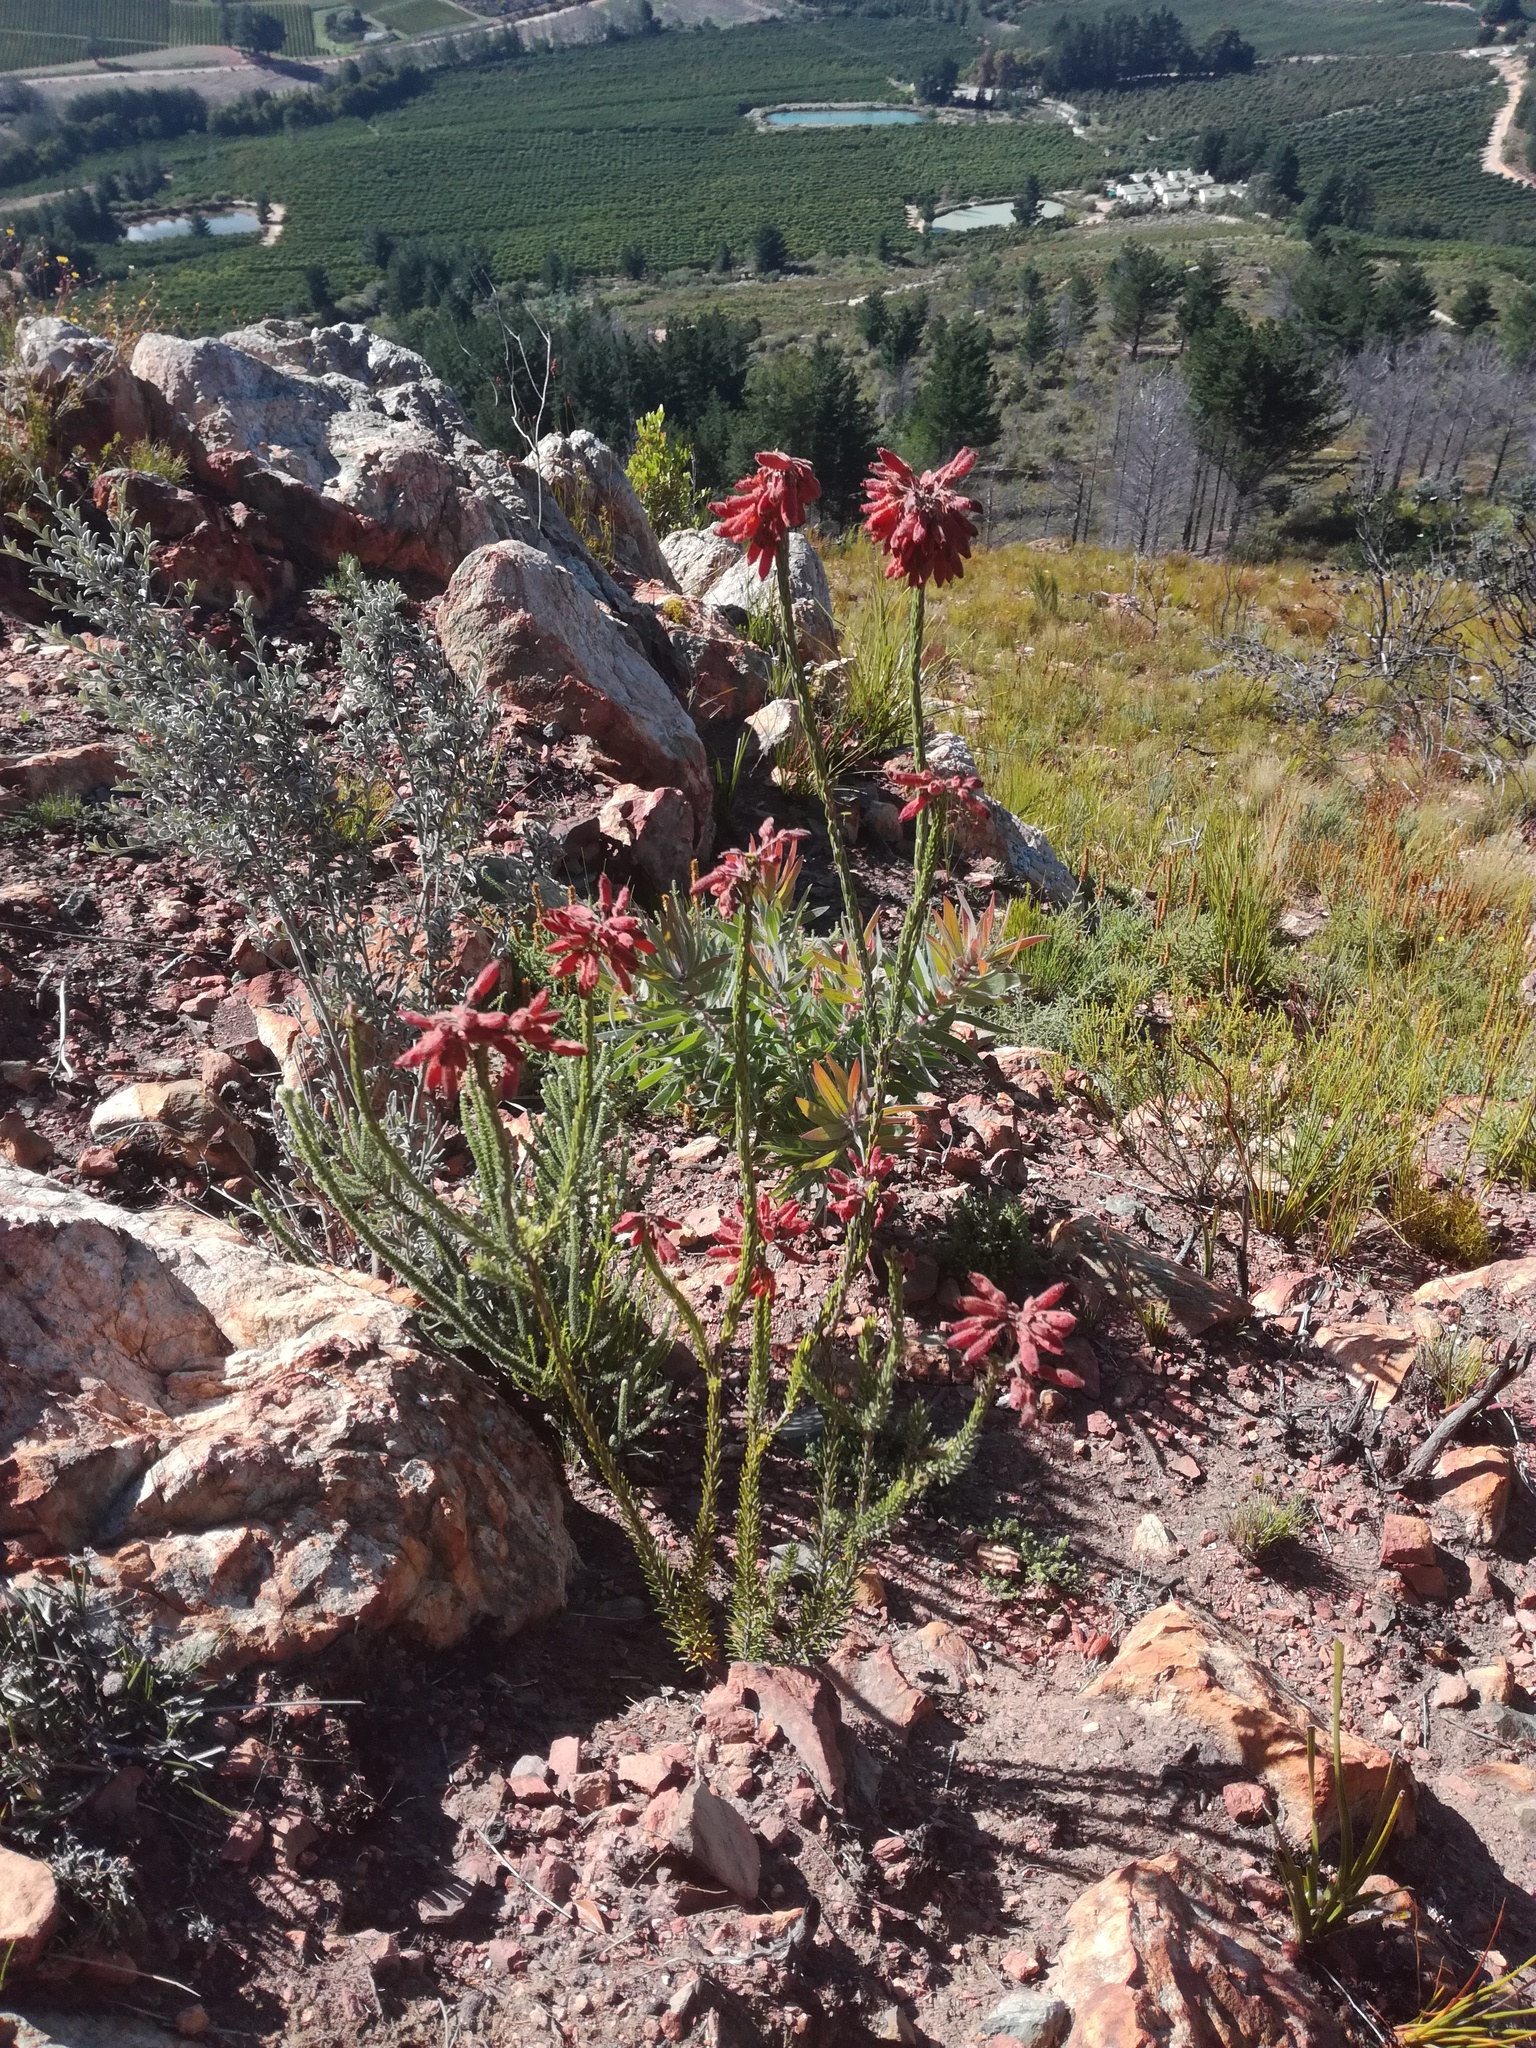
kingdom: Plantae
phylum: Tracheophyta
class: Magnoliopsida
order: Ericales
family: Ericaceae
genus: Erica
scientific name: Erica cerinthoides
